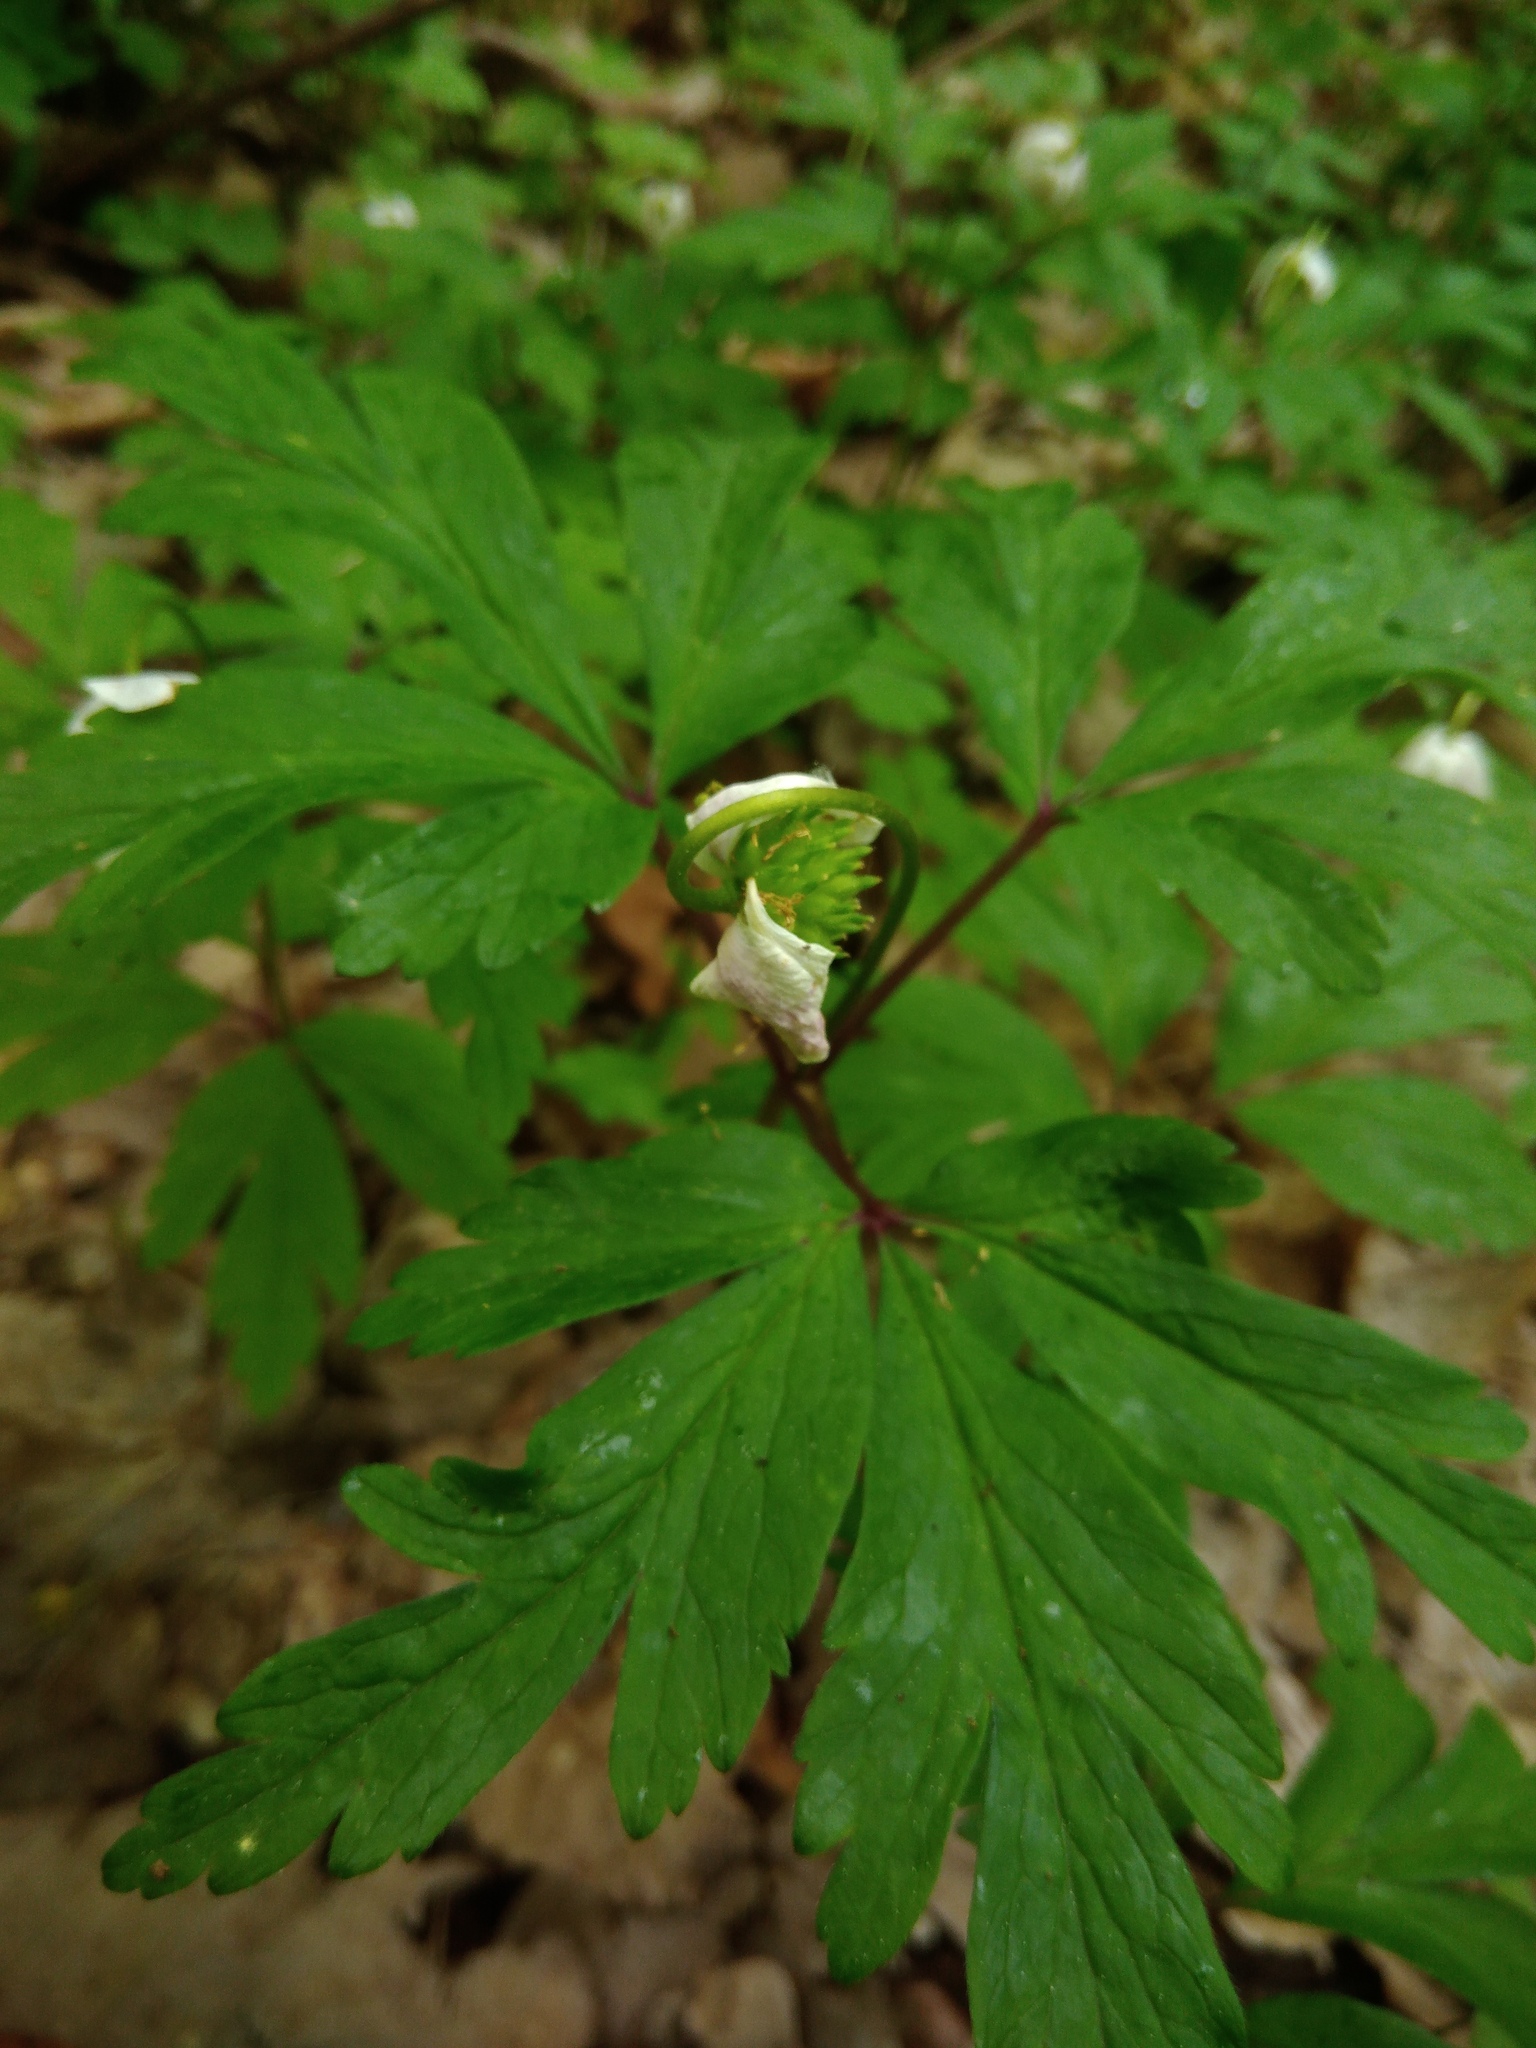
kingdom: Plantae
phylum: Tracheophyta
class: Magnoliopsida
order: Ranunculales
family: Ranunculaceae
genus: Anemone
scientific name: Anemone nemorosa
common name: Wood anemone
